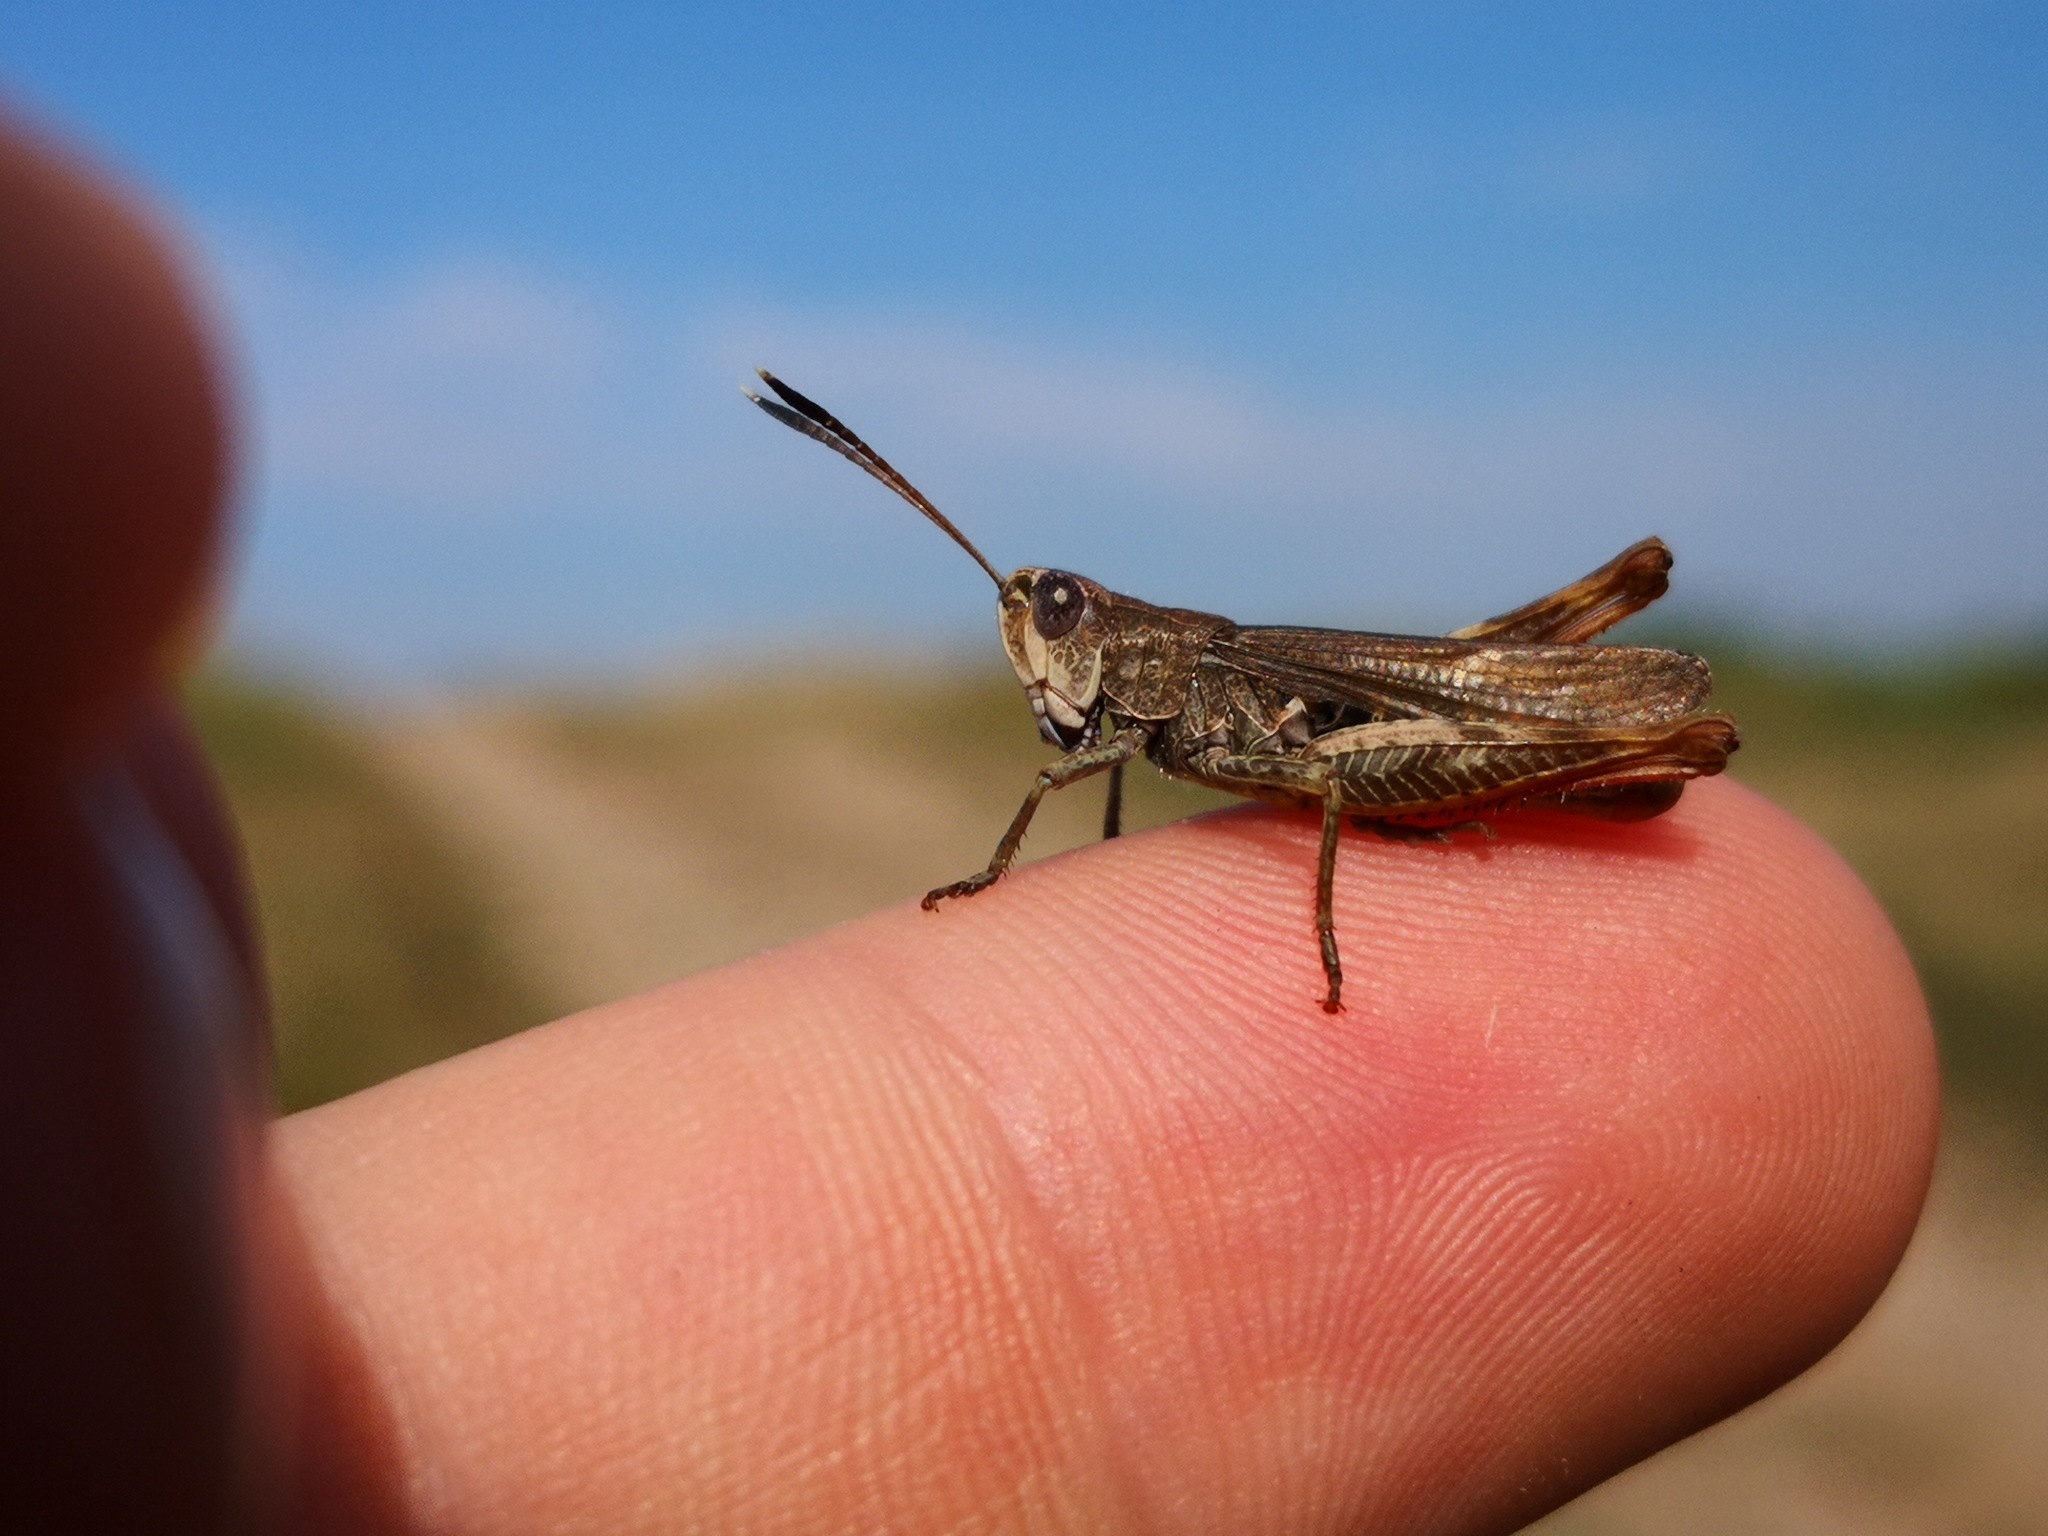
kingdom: Animalia
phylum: Arthropoda
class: Insecta
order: Orthoptera
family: Acrididae
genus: Gomphocerippus
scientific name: Gomphocerippus rufus
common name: Rufous grasshopper
